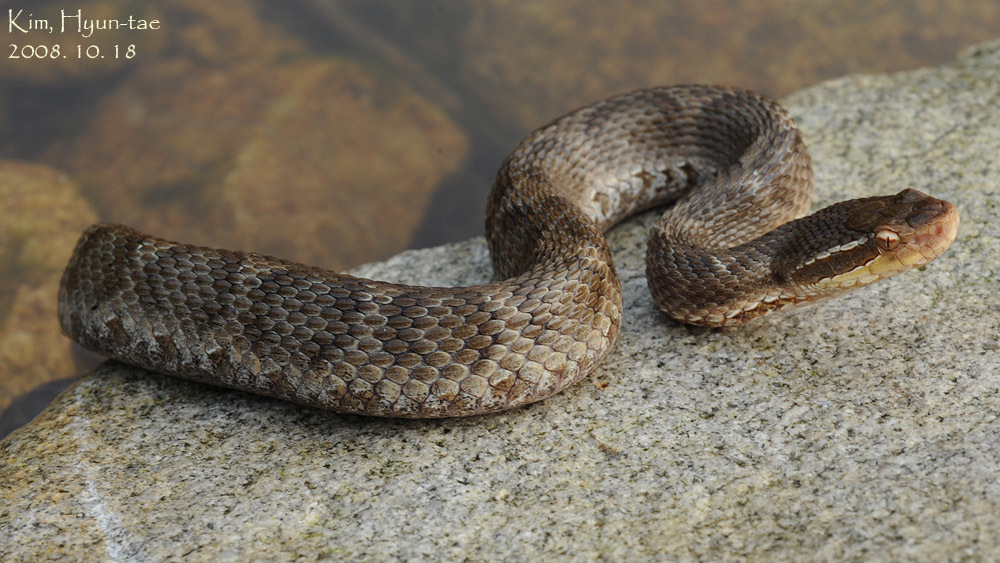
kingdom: Animalia
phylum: Chordata
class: Squamata
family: Viperidae
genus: Gloydius
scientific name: Gloydius ussuriensis
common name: Ussuri mamushi
